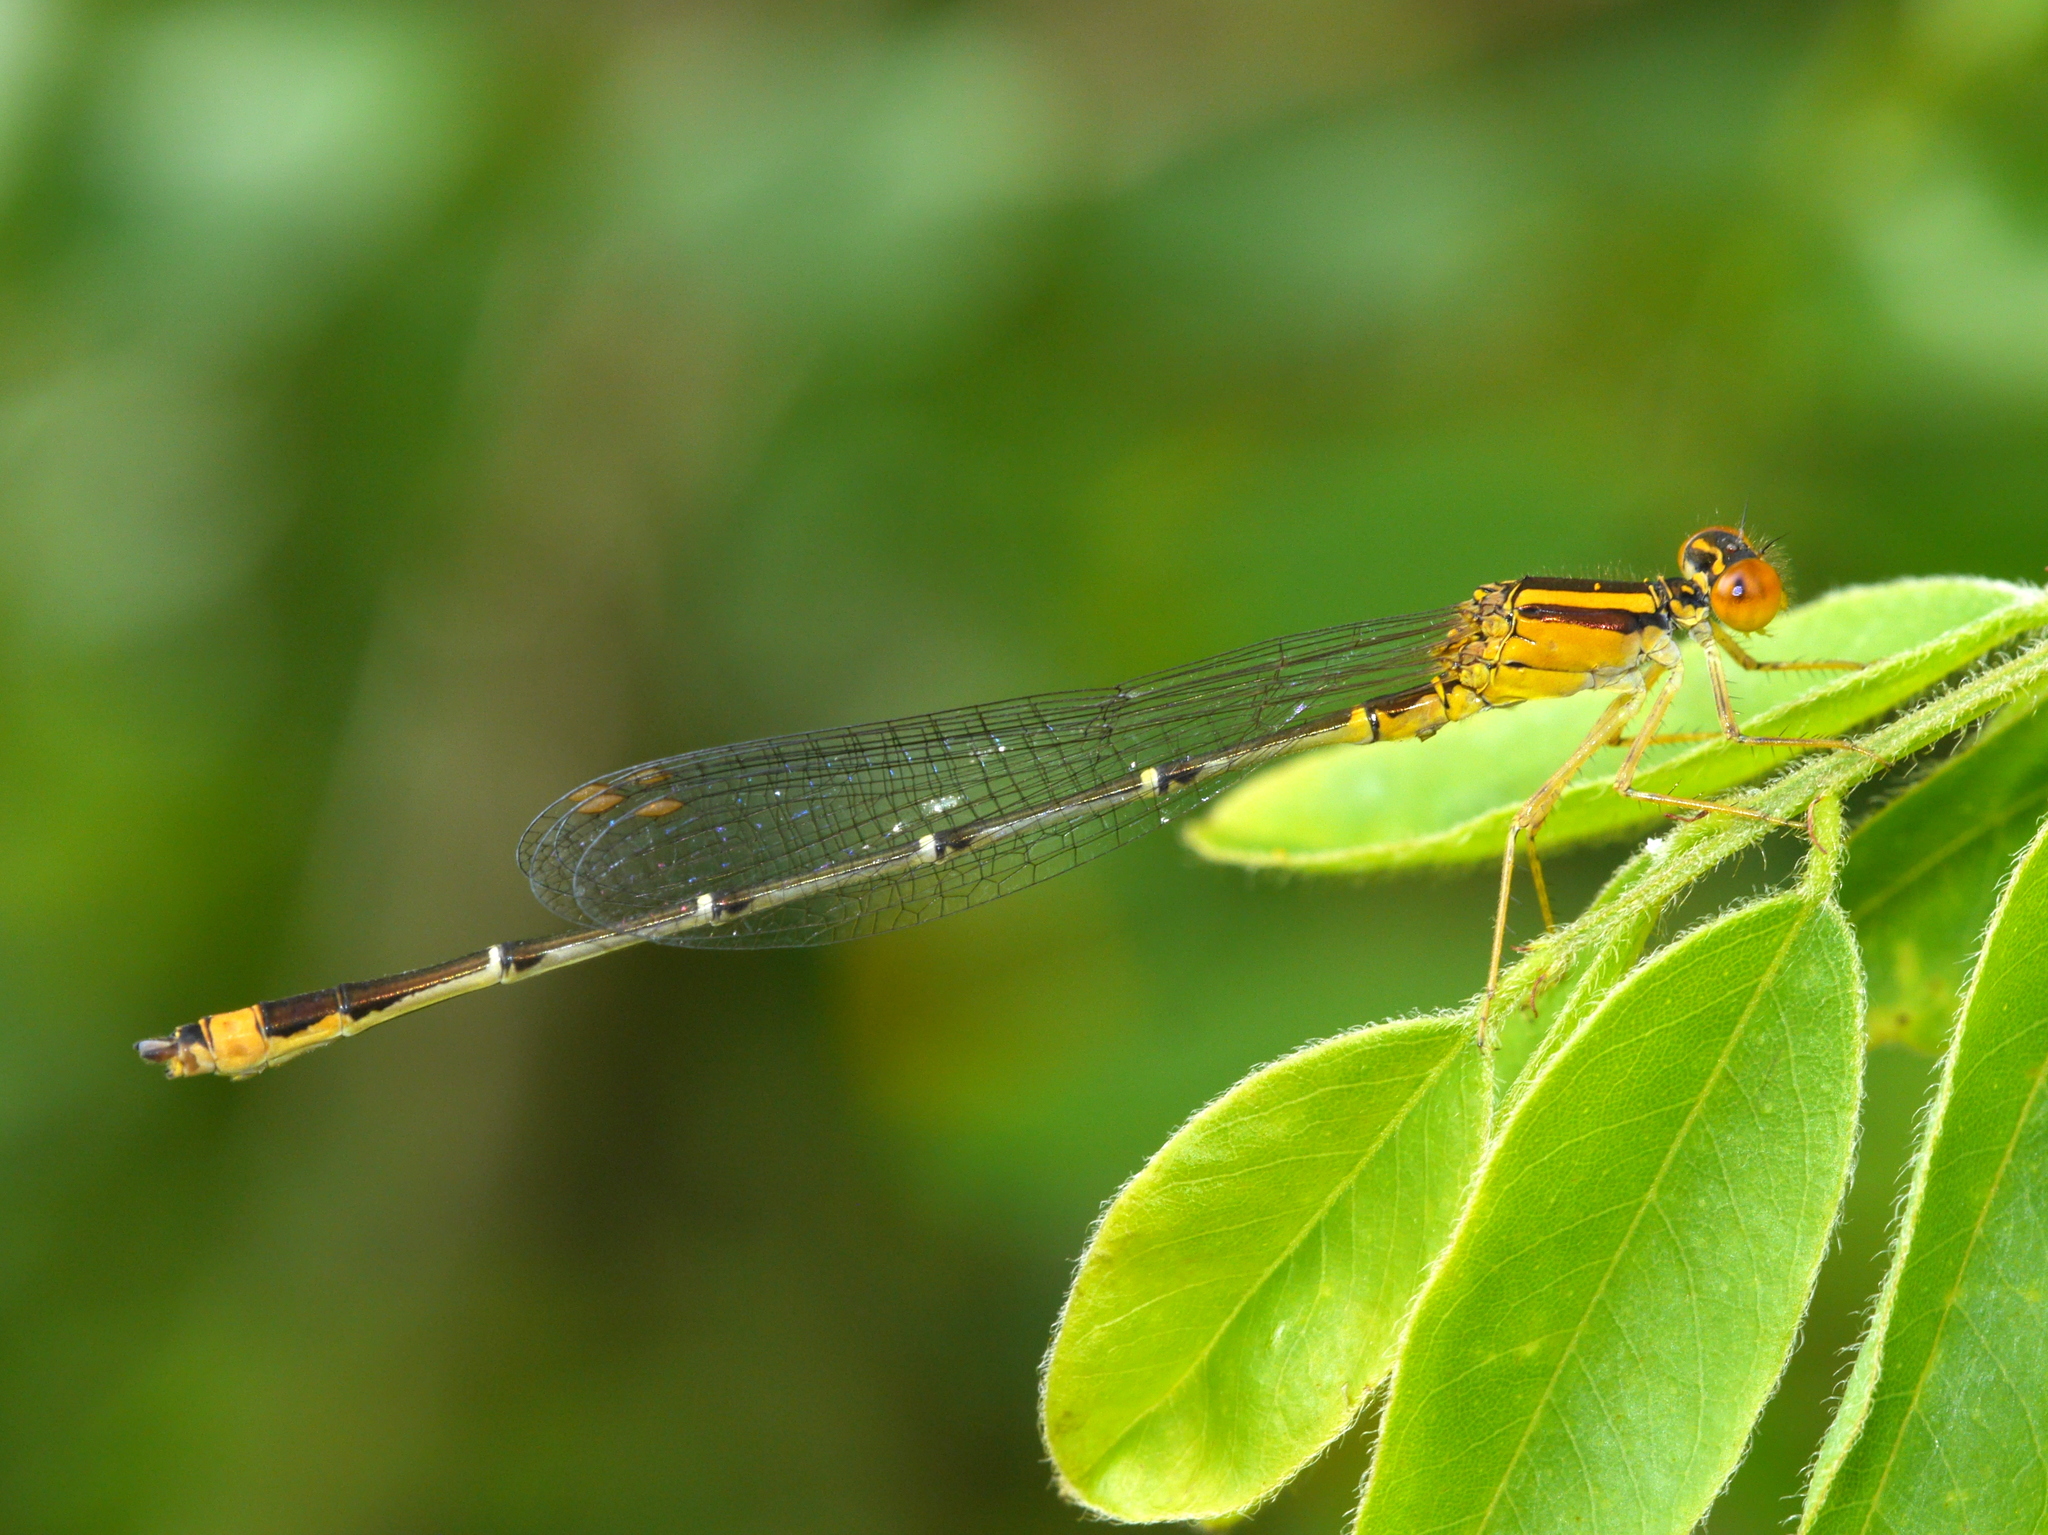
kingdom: Animalia
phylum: Arthropoda
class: Insecta
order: Odonata
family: Coenagrionidae
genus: Enallagma
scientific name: Enallagma signatum
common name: Orange bluet
